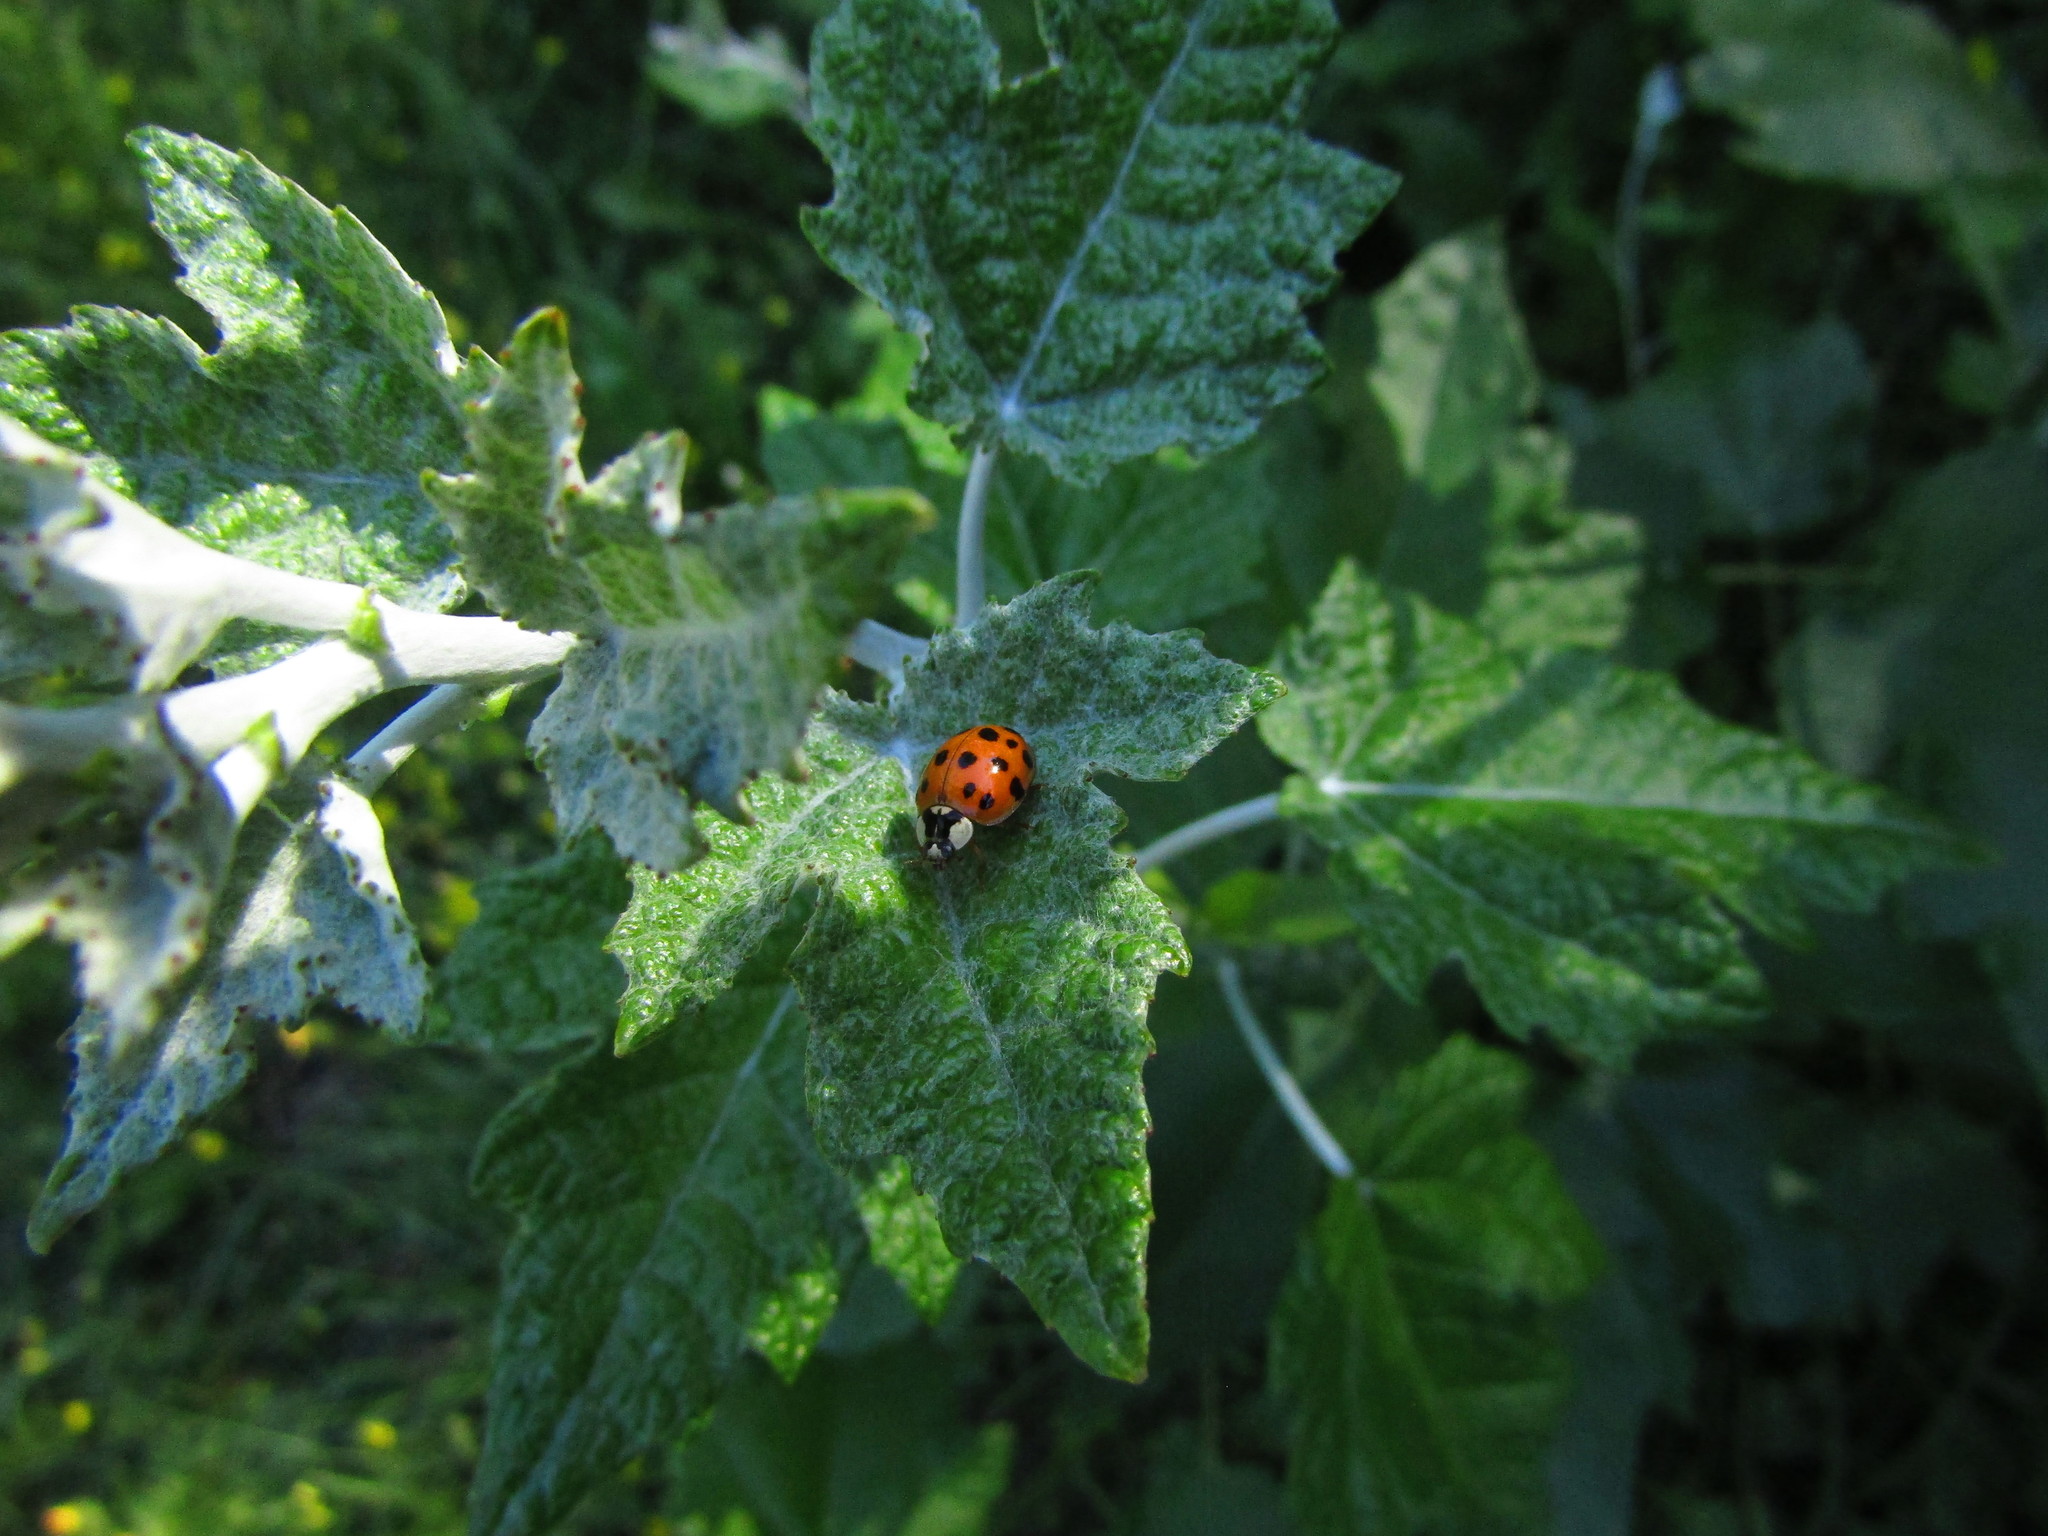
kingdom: Animalia
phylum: Arthropoda
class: Insecta
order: Coleoptera
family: Coccinellidae
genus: Harmonia
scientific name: Harmonia axyridis
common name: Harlequin ladybird
